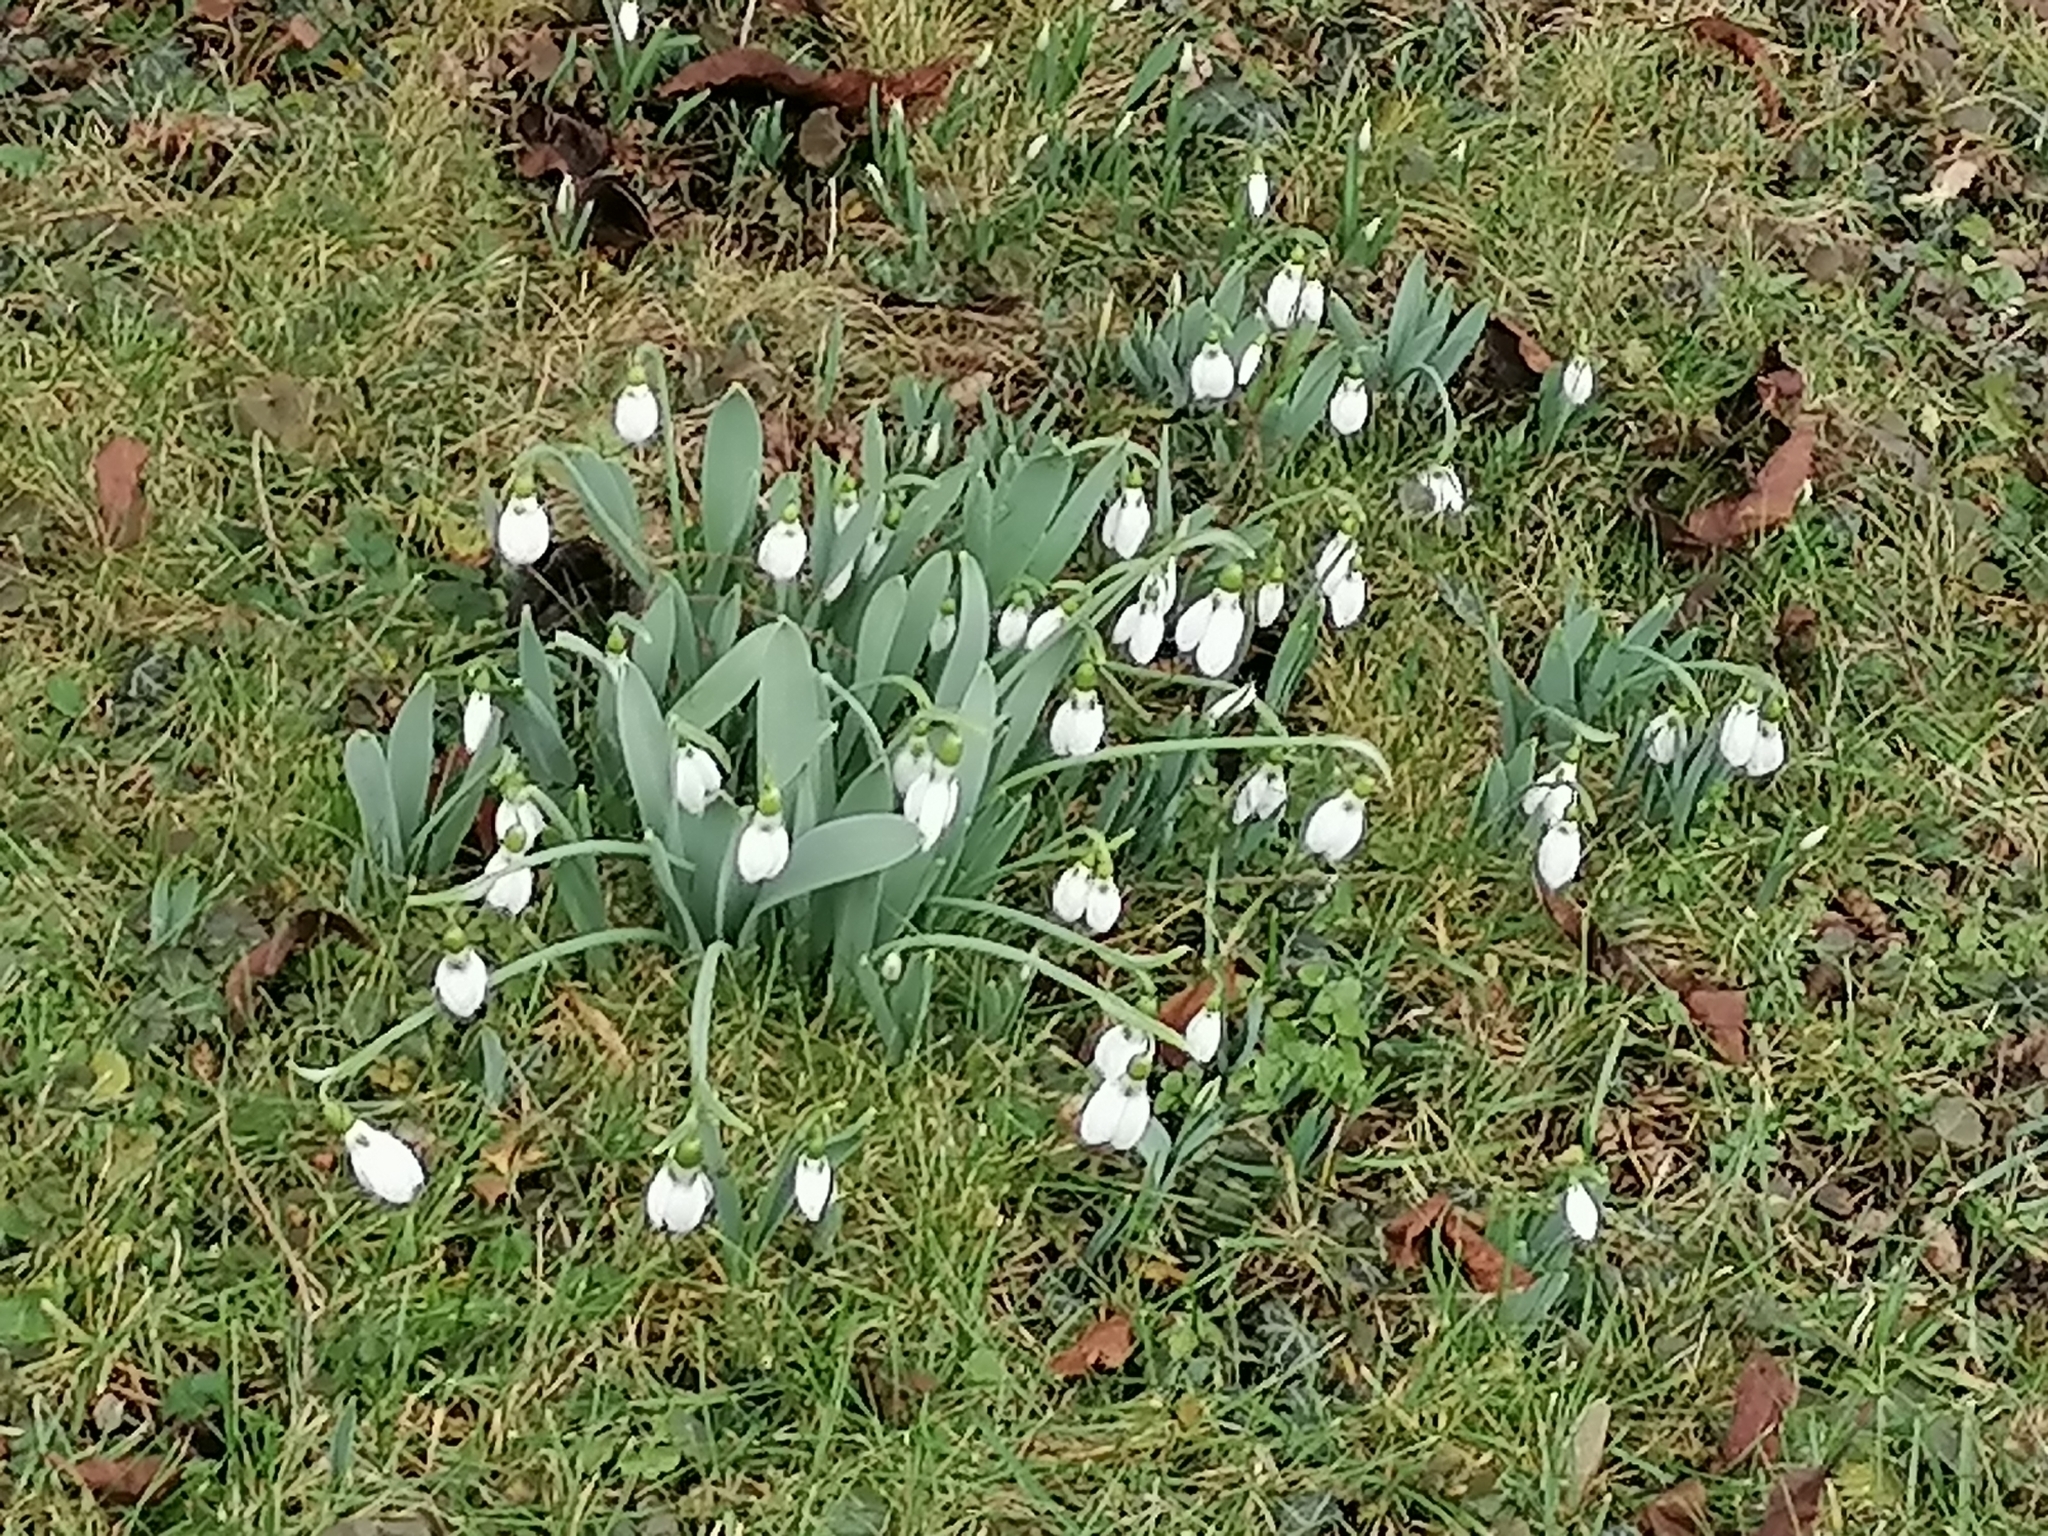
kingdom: Plantae
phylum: Tracheophyta
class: Liliopsida
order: Asparagales
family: Amaryllidaceae
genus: Galanthus
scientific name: Galanthus elwesii
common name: Greater snowdrop
